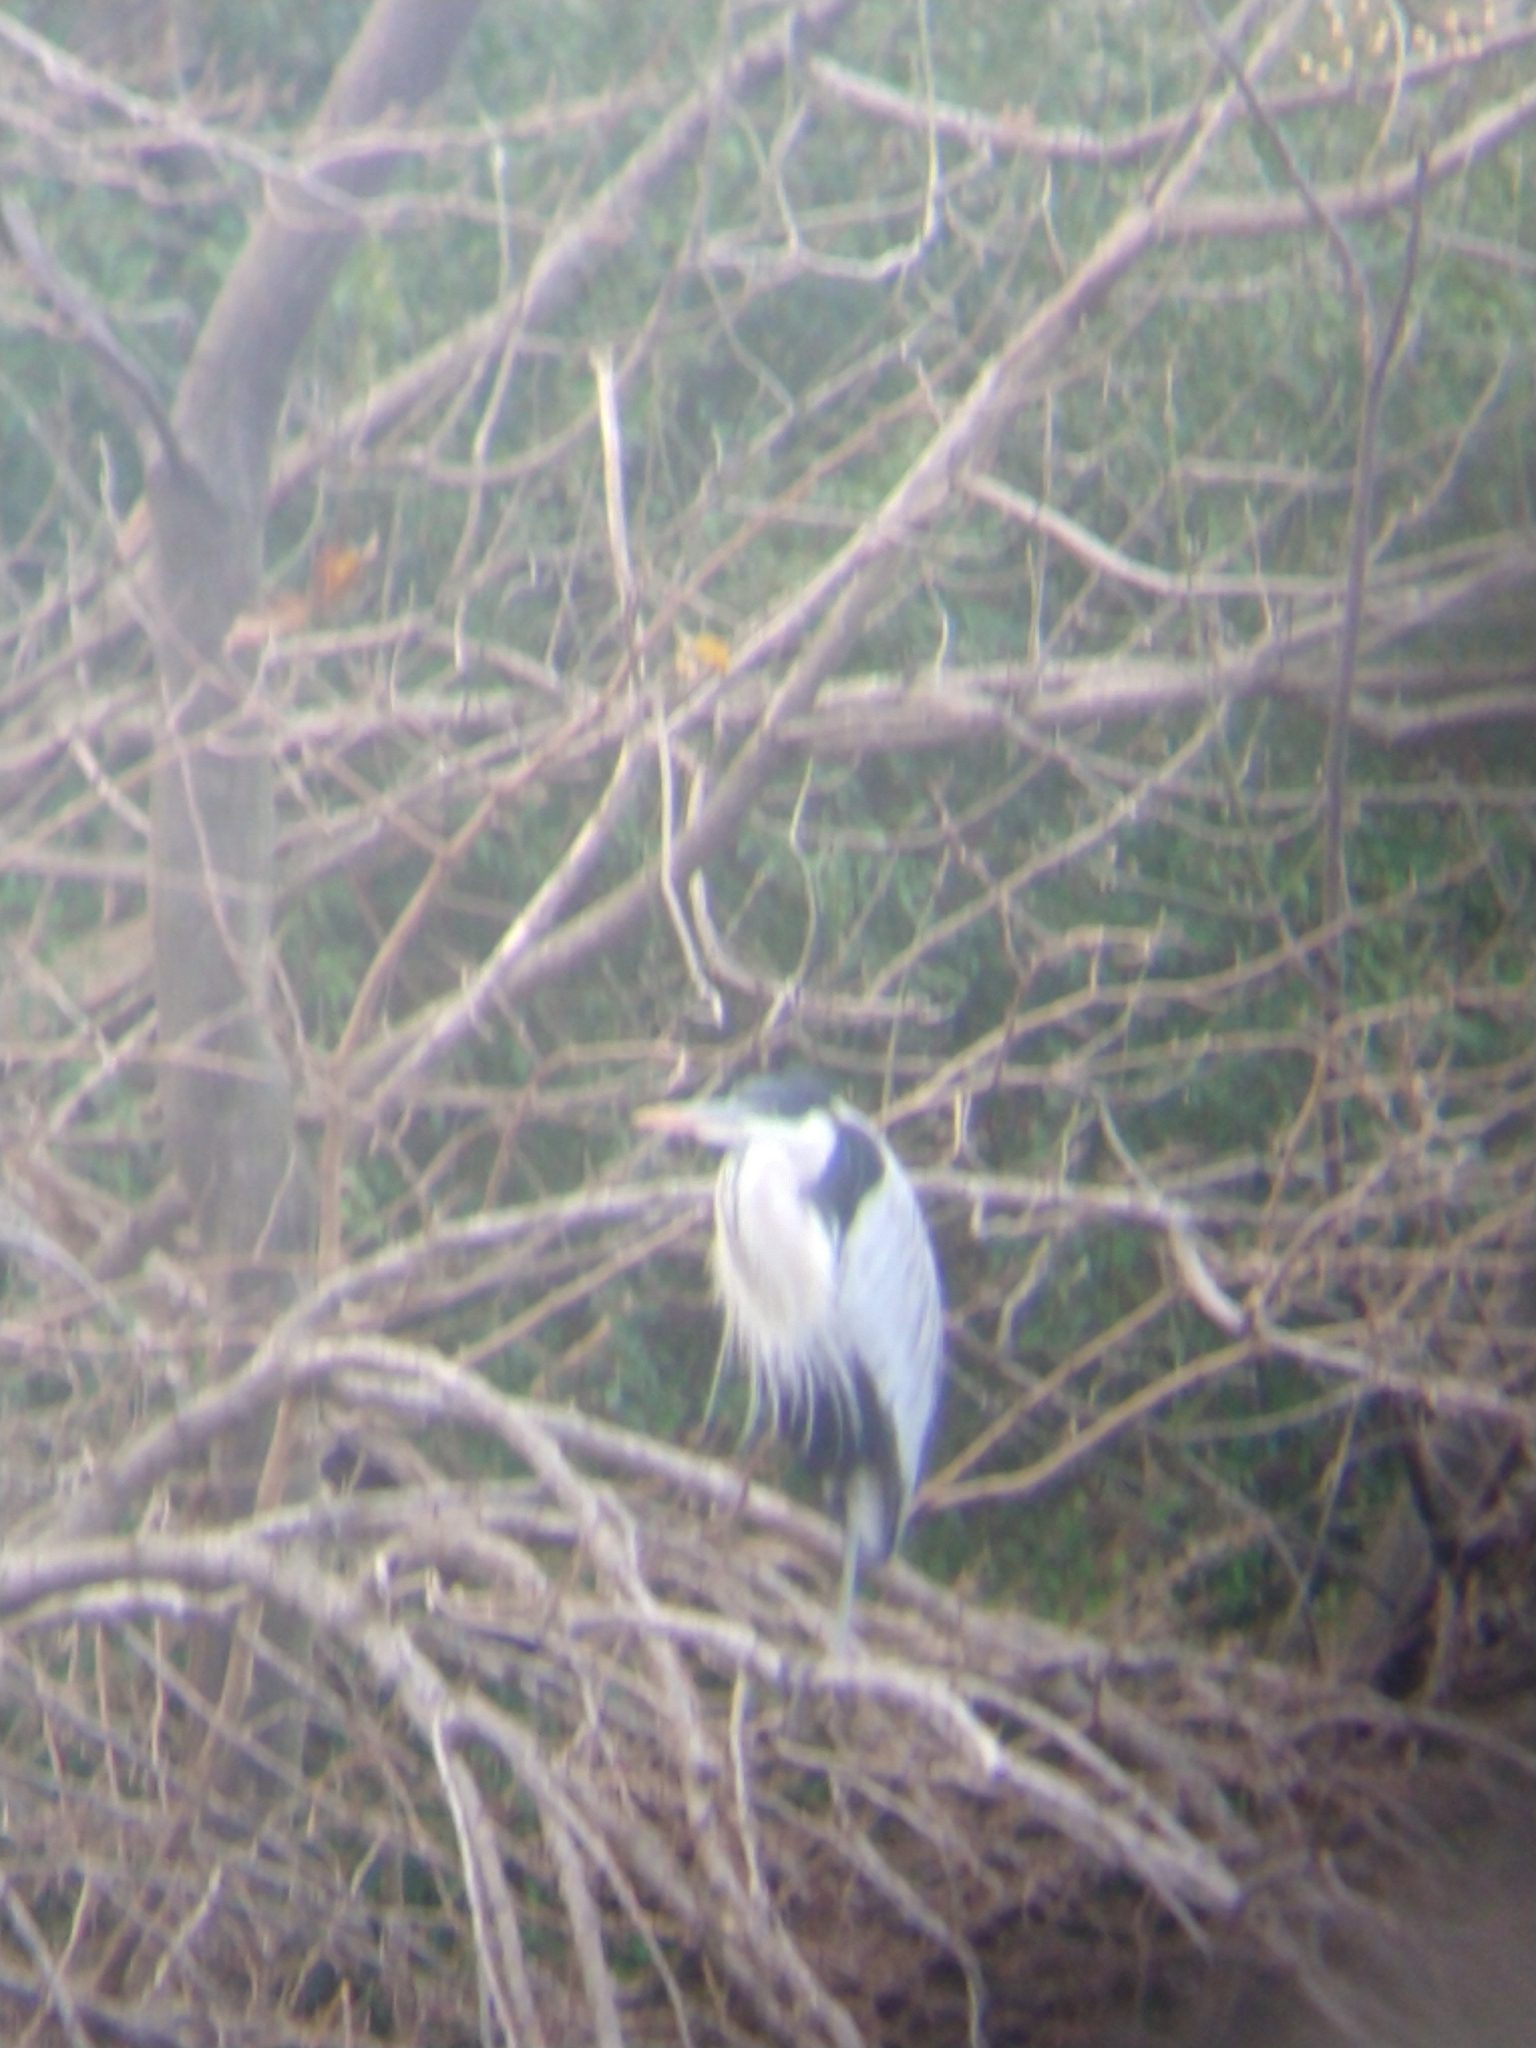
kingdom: Animalia
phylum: Chordata
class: Aves
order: Pelecaniformes
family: Ardeidae
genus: Ardea
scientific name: Ardea cocoi
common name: Cocoi heron
